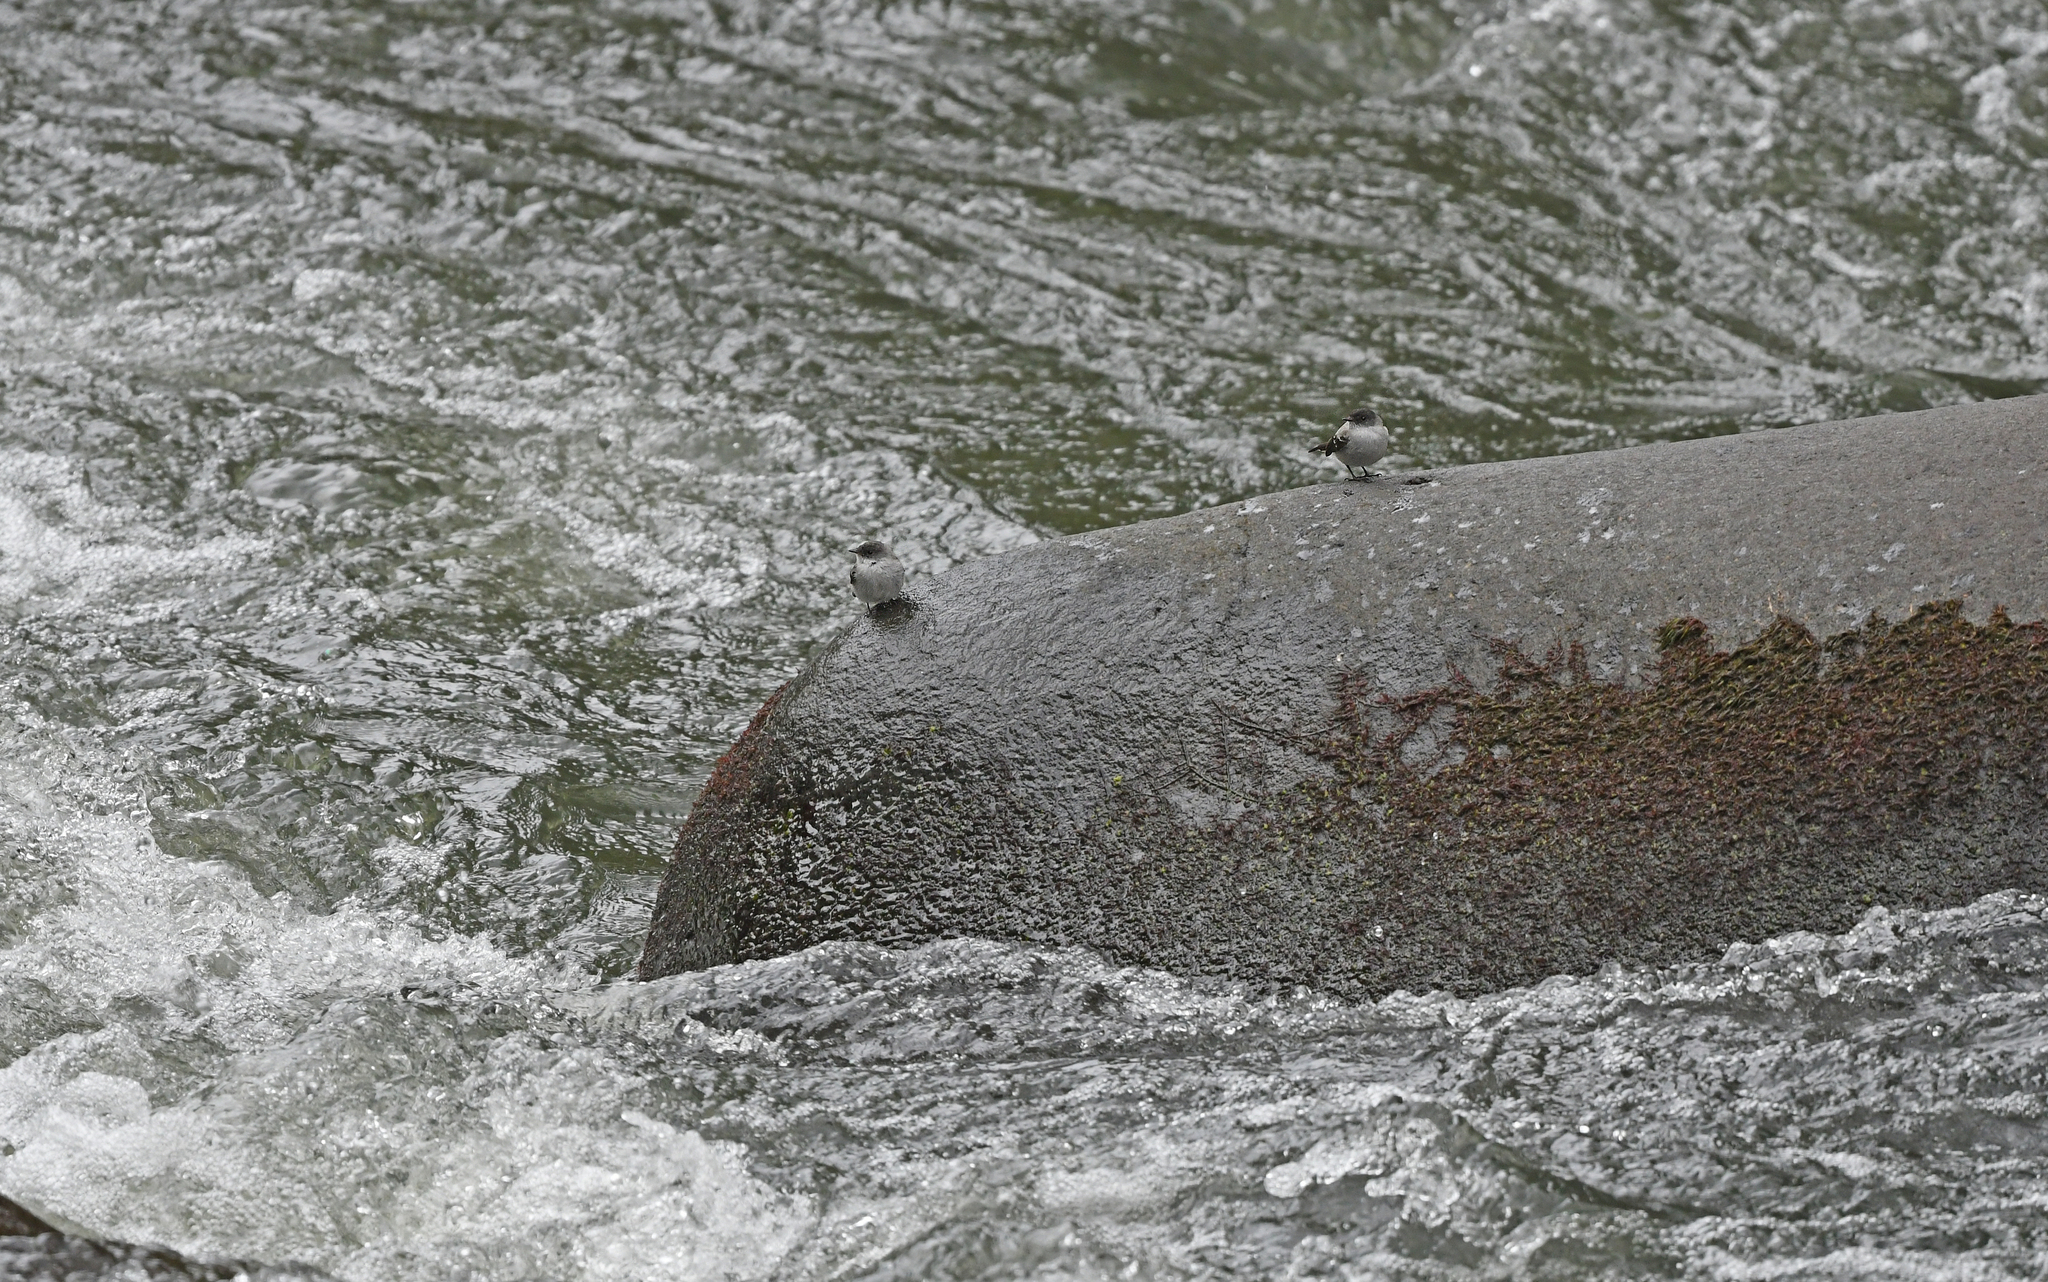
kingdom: Animalia
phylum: Chordata
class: Aves
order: Passeriformes
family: Tyrannidae
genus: Serpophaga
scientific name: Serpophaga cinerea
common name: Torrent tyrannulet
